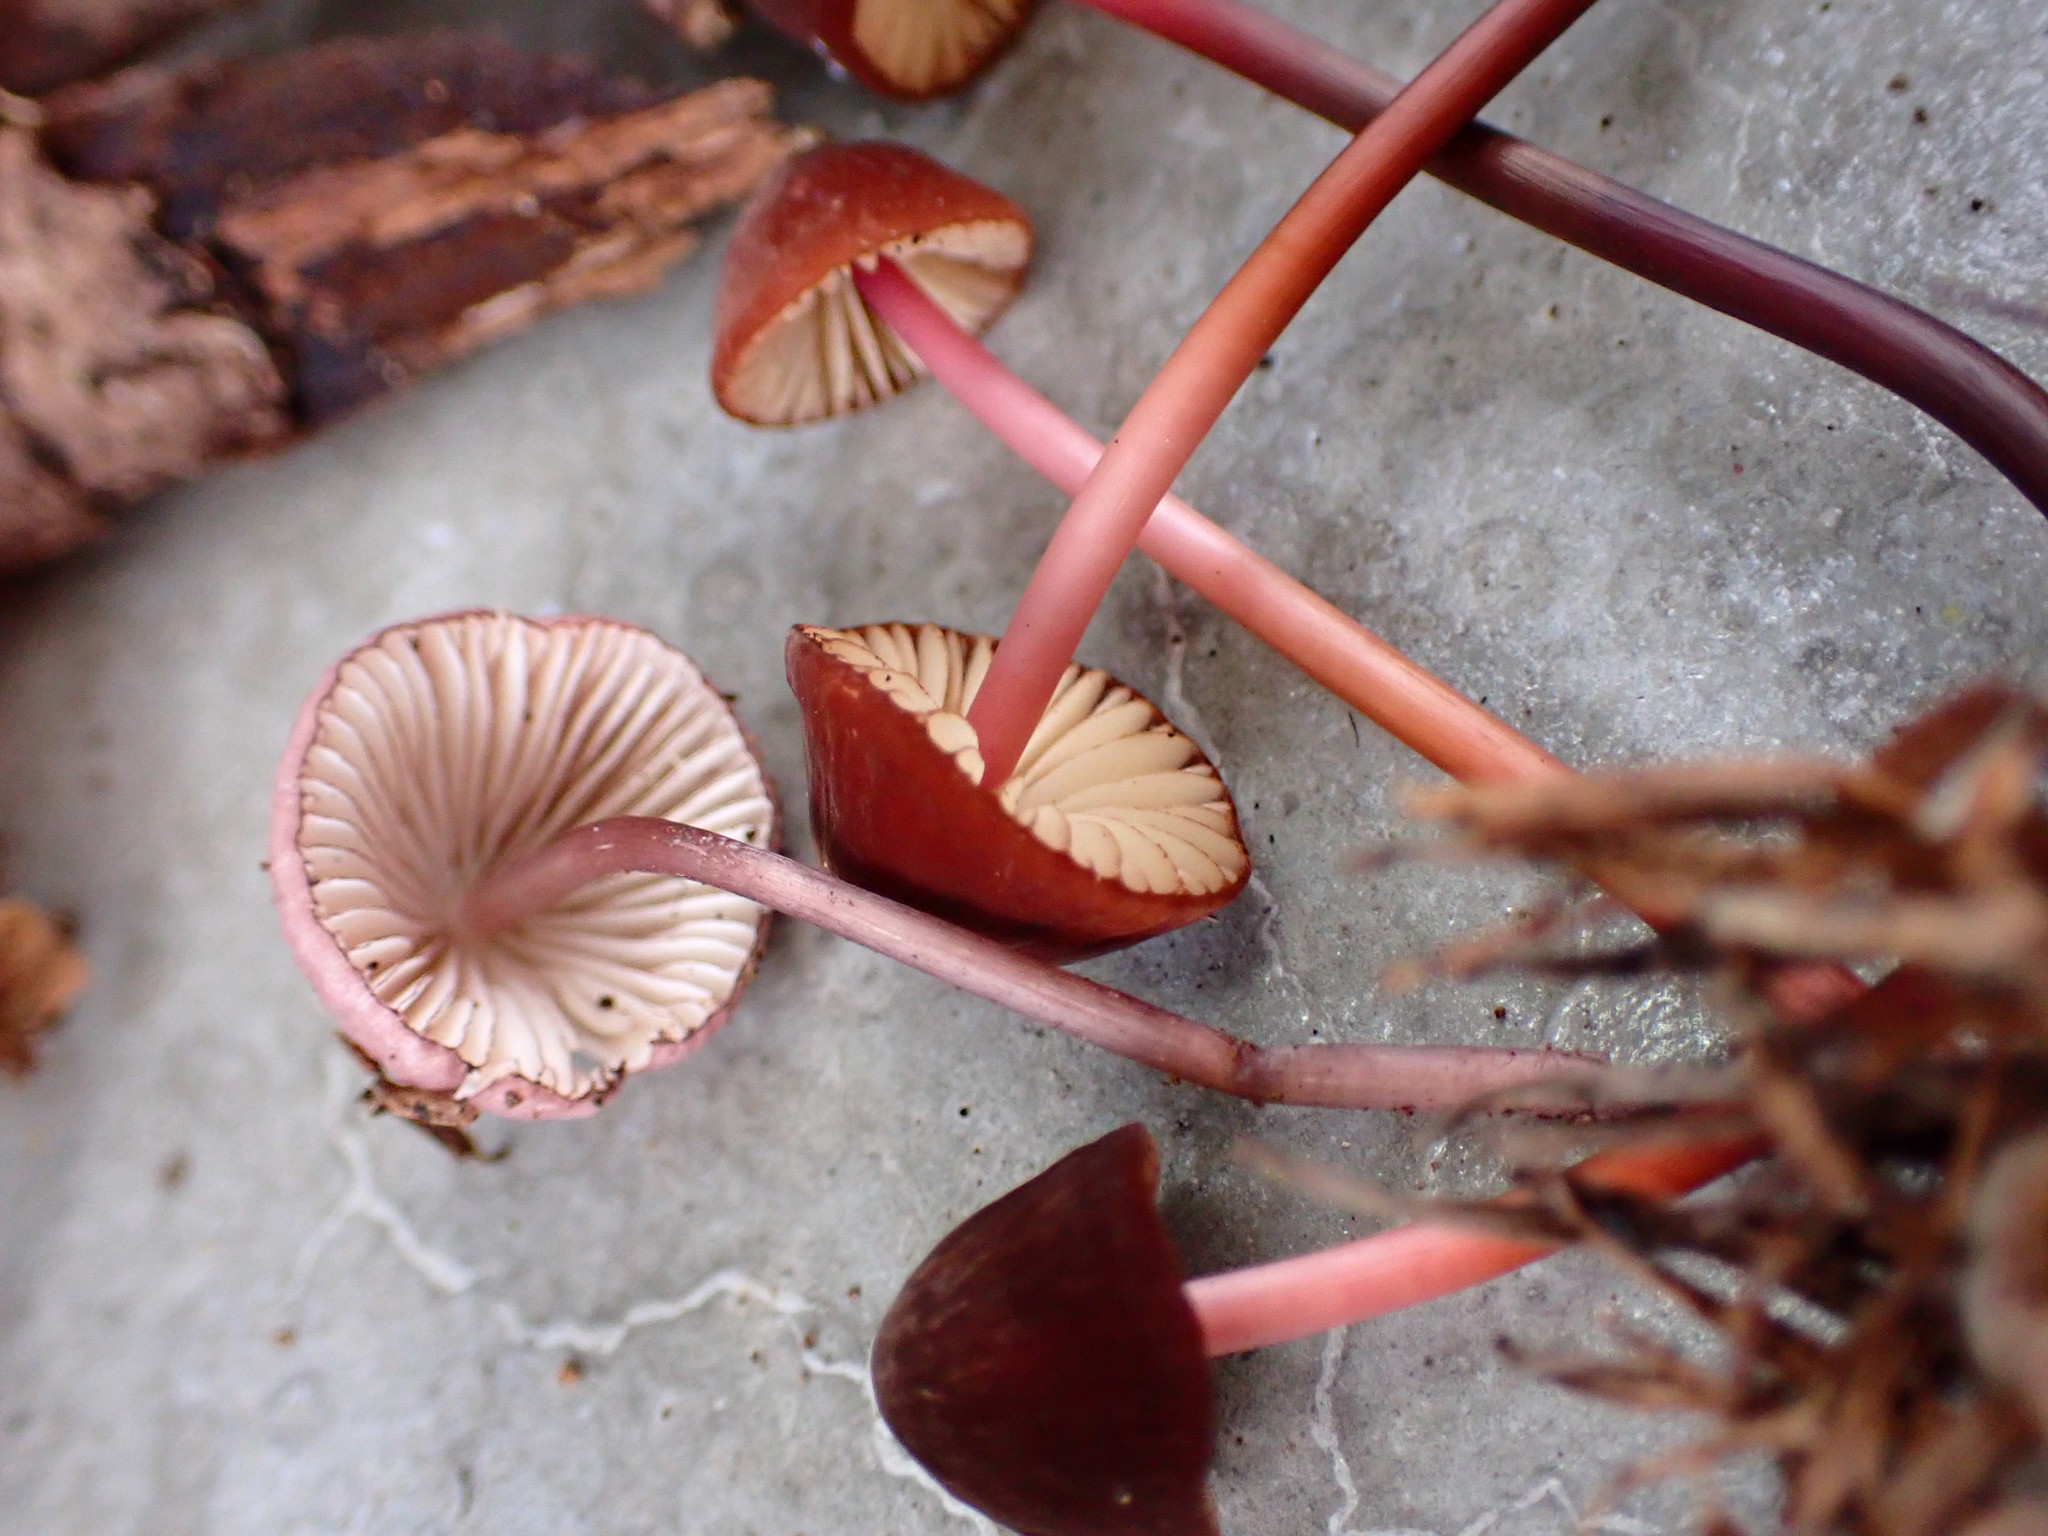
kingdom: Fungi
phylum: Basidiomycota
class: Agaricomycetes
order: Agaricales
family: Marasmiaceae
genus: Marasmius
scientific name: Marasmius plicatulus
